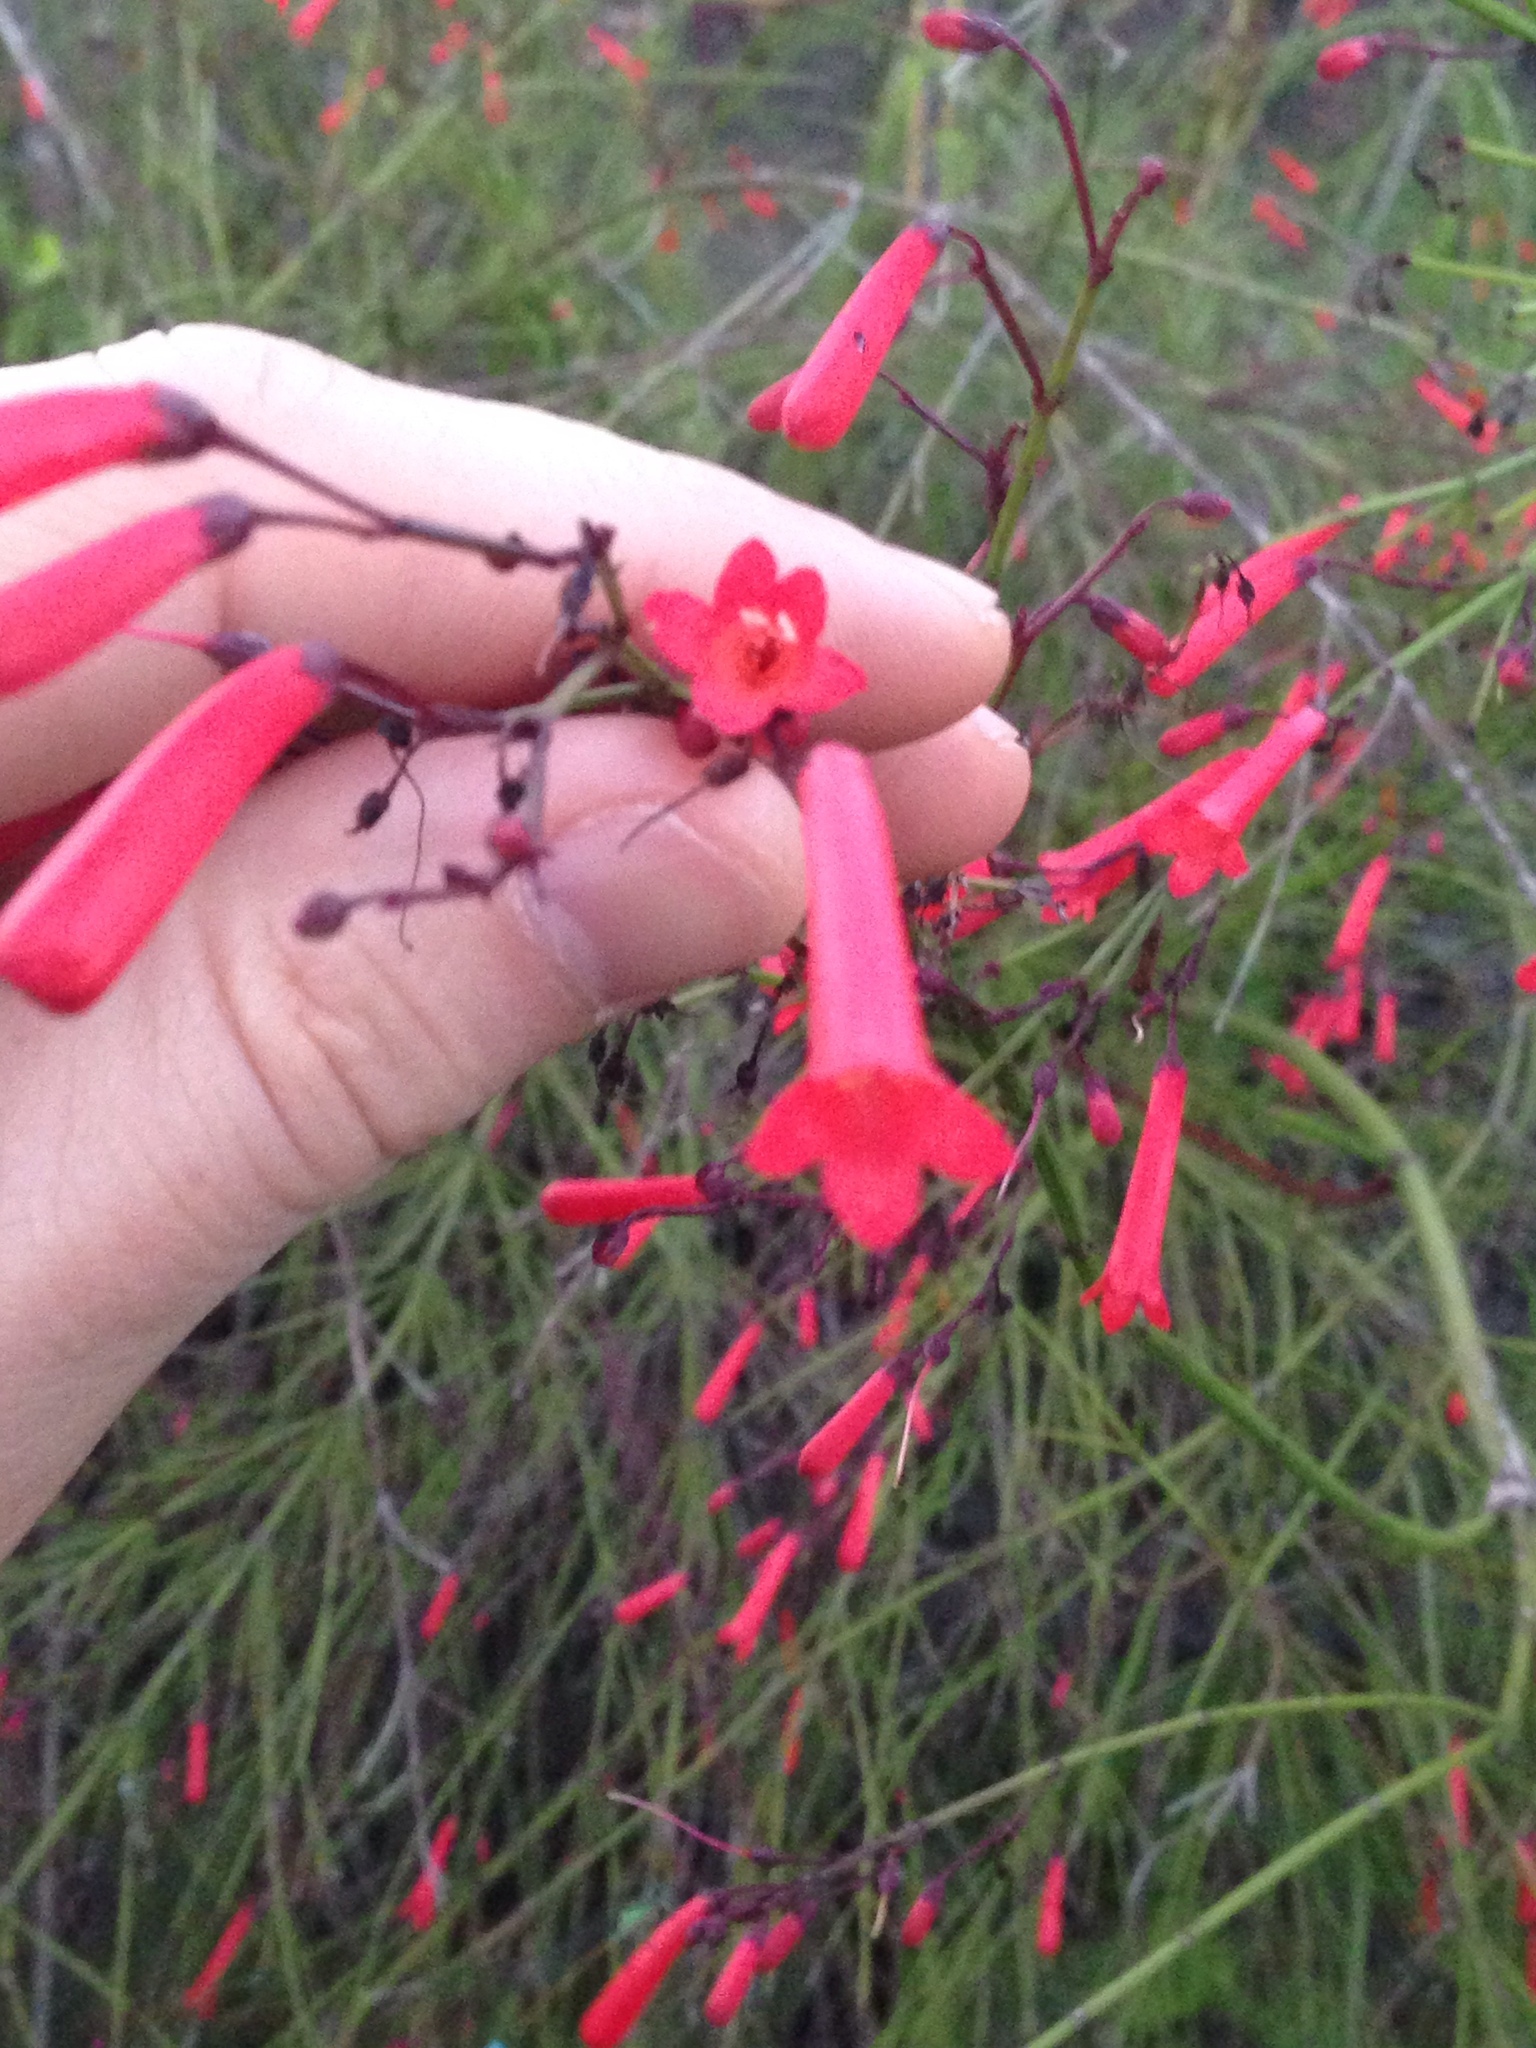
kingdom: Plantae
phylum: Tracheophyta
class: Magnoliopsida
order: Lamiales
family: Plantaginaceae
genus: Russelia
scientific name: Russelia equisetiformis
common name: Fountainbush
